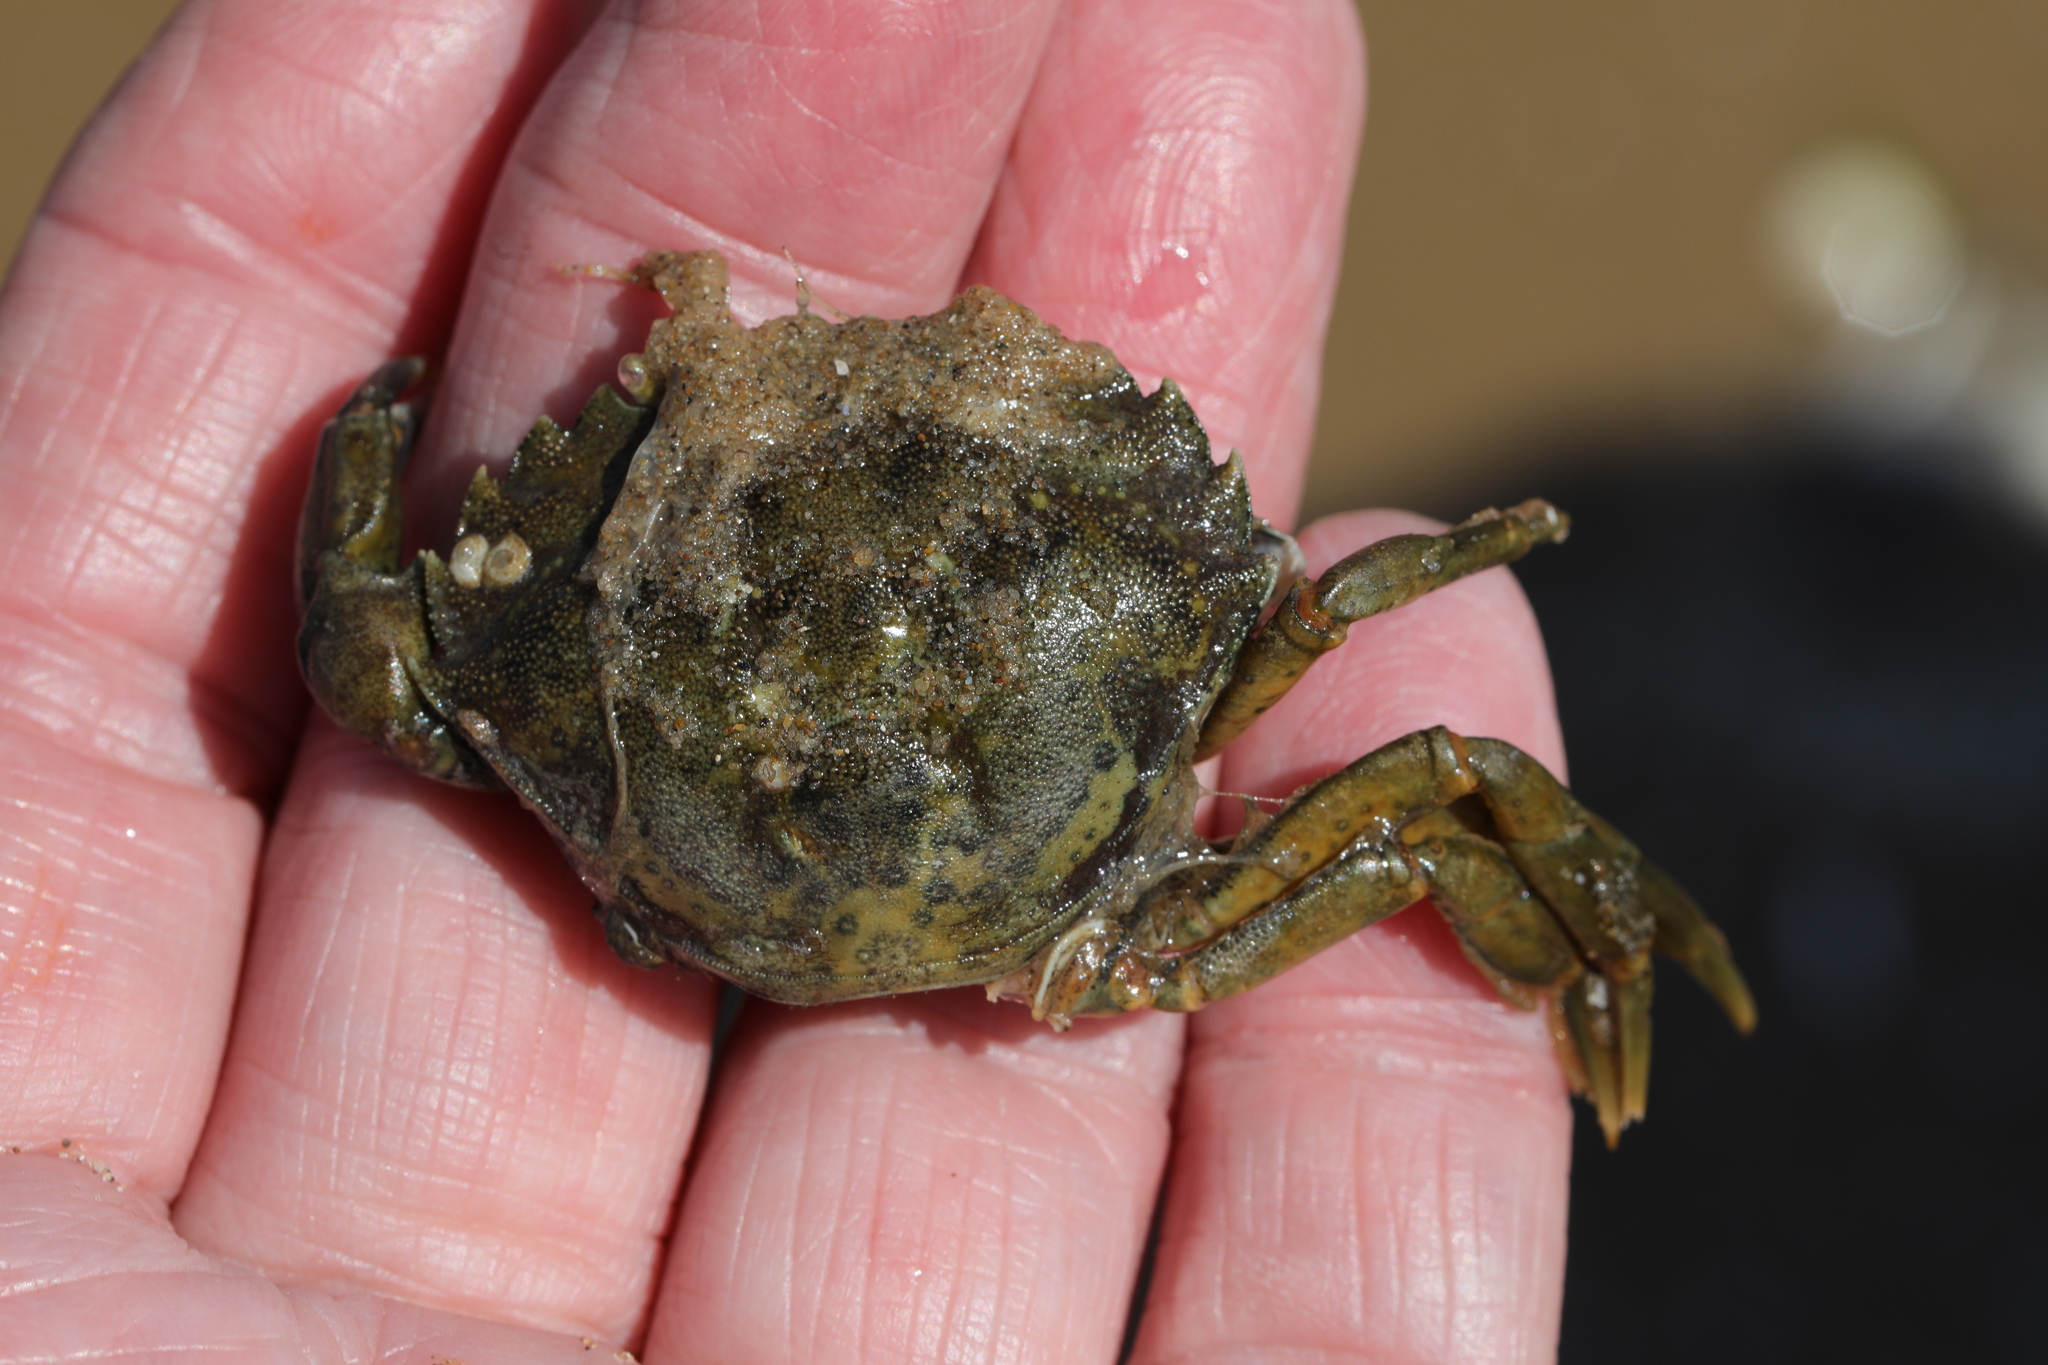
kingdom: Animalia
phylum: Arthropoda
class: Malacostraca
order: Decapoda
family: Carcinidae
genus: Carcinus
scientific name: Carcinus maenas
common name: European green crab
